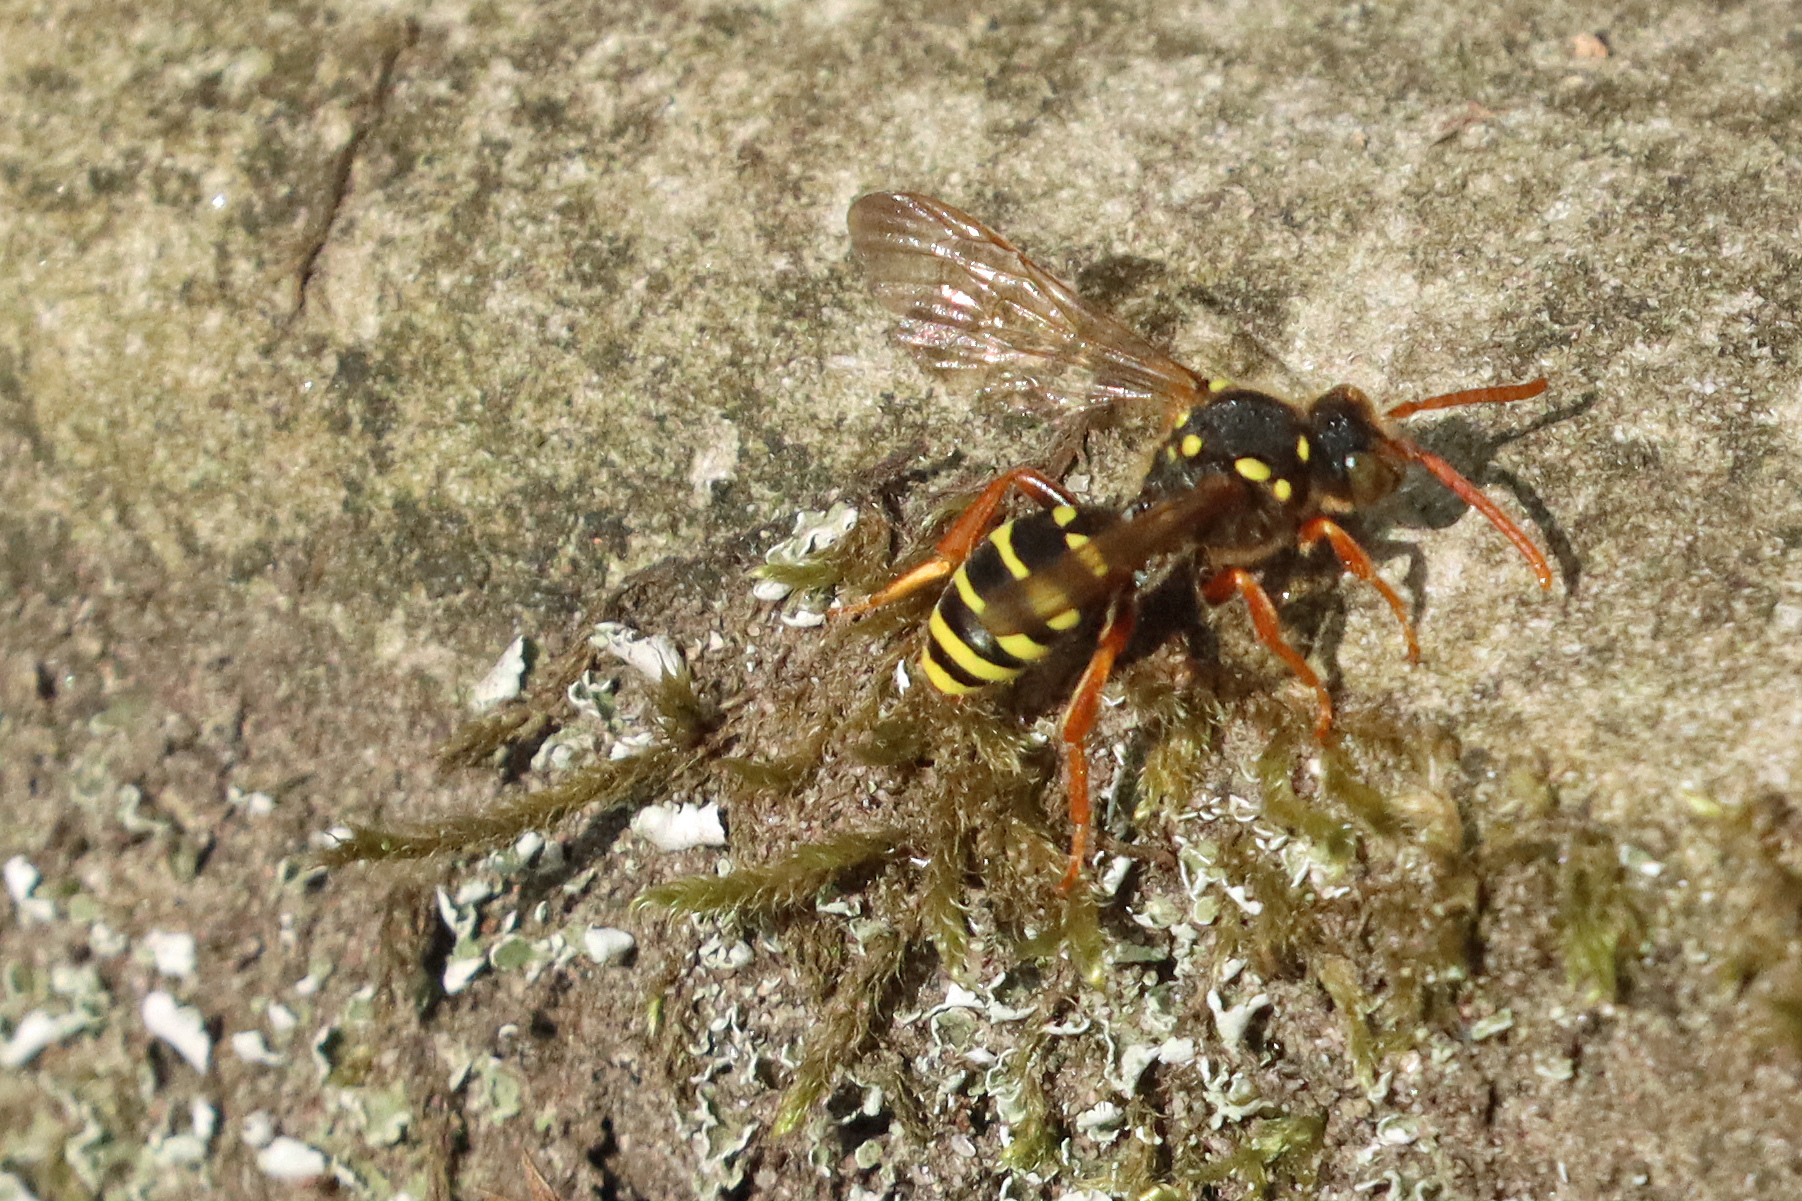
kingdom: Animalia
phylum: Arthropoda
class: Insecta
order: Hymenoptera
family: Apidae
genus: Nomada
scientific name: Nomada goodeniana
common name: Gooden's nomad bee
